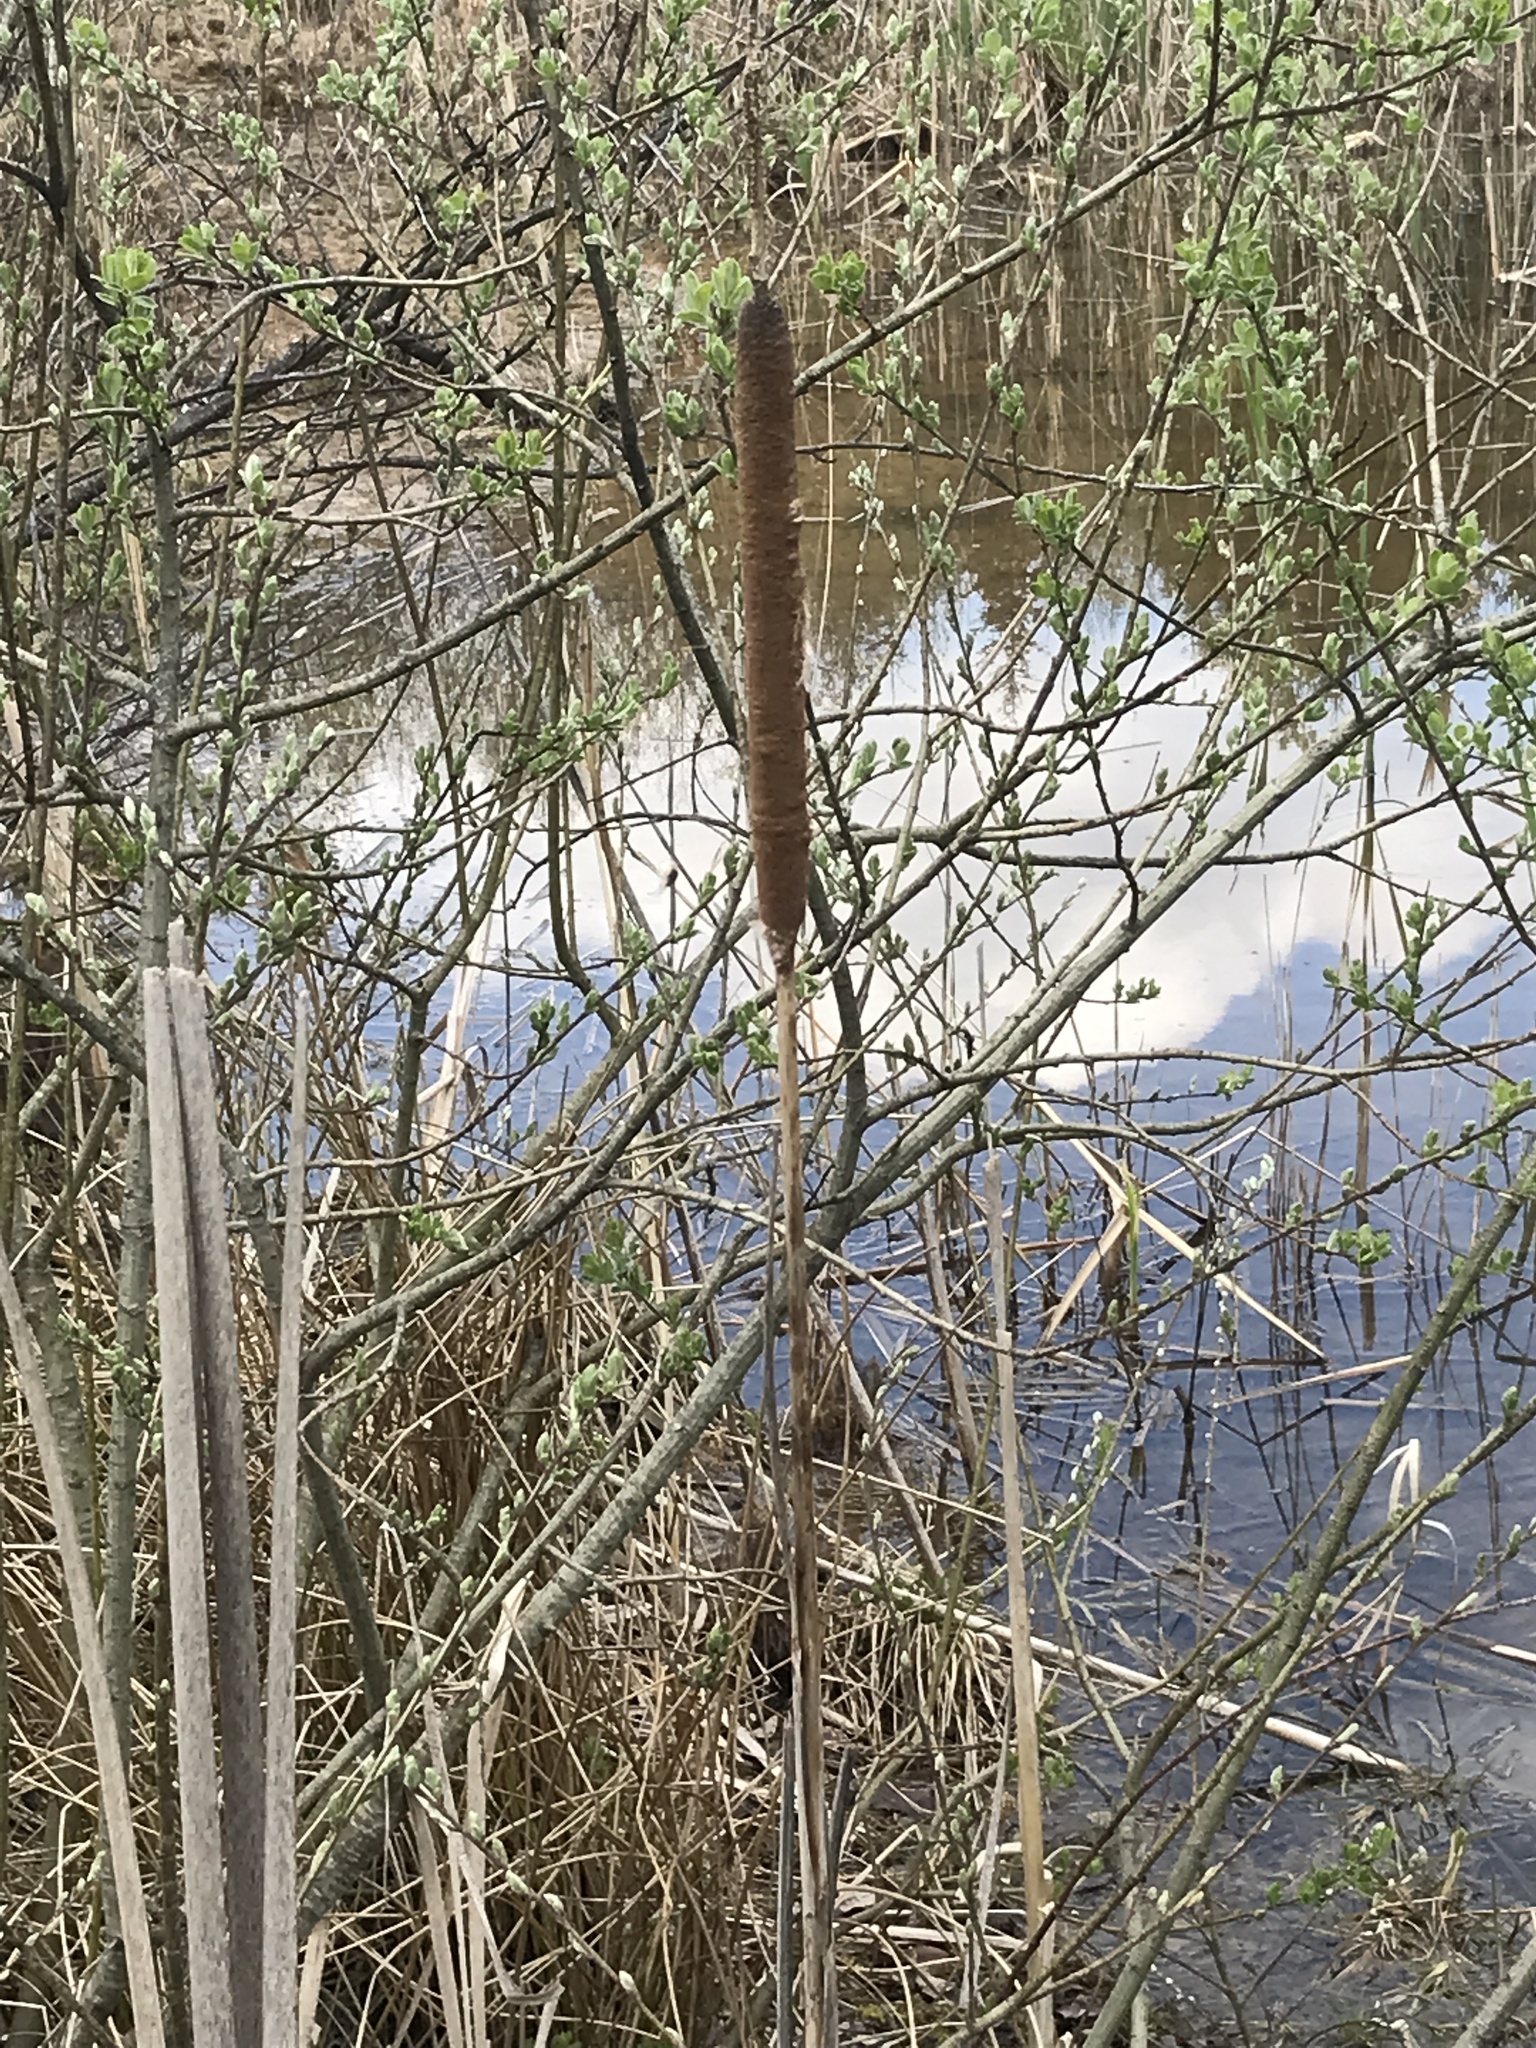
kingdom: Plantae
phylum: Tracheophyta
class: Liliopsida
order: Poales
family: Typhaceae
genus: Typha
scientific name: Typha latifolia
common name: Broadleaf cattail
